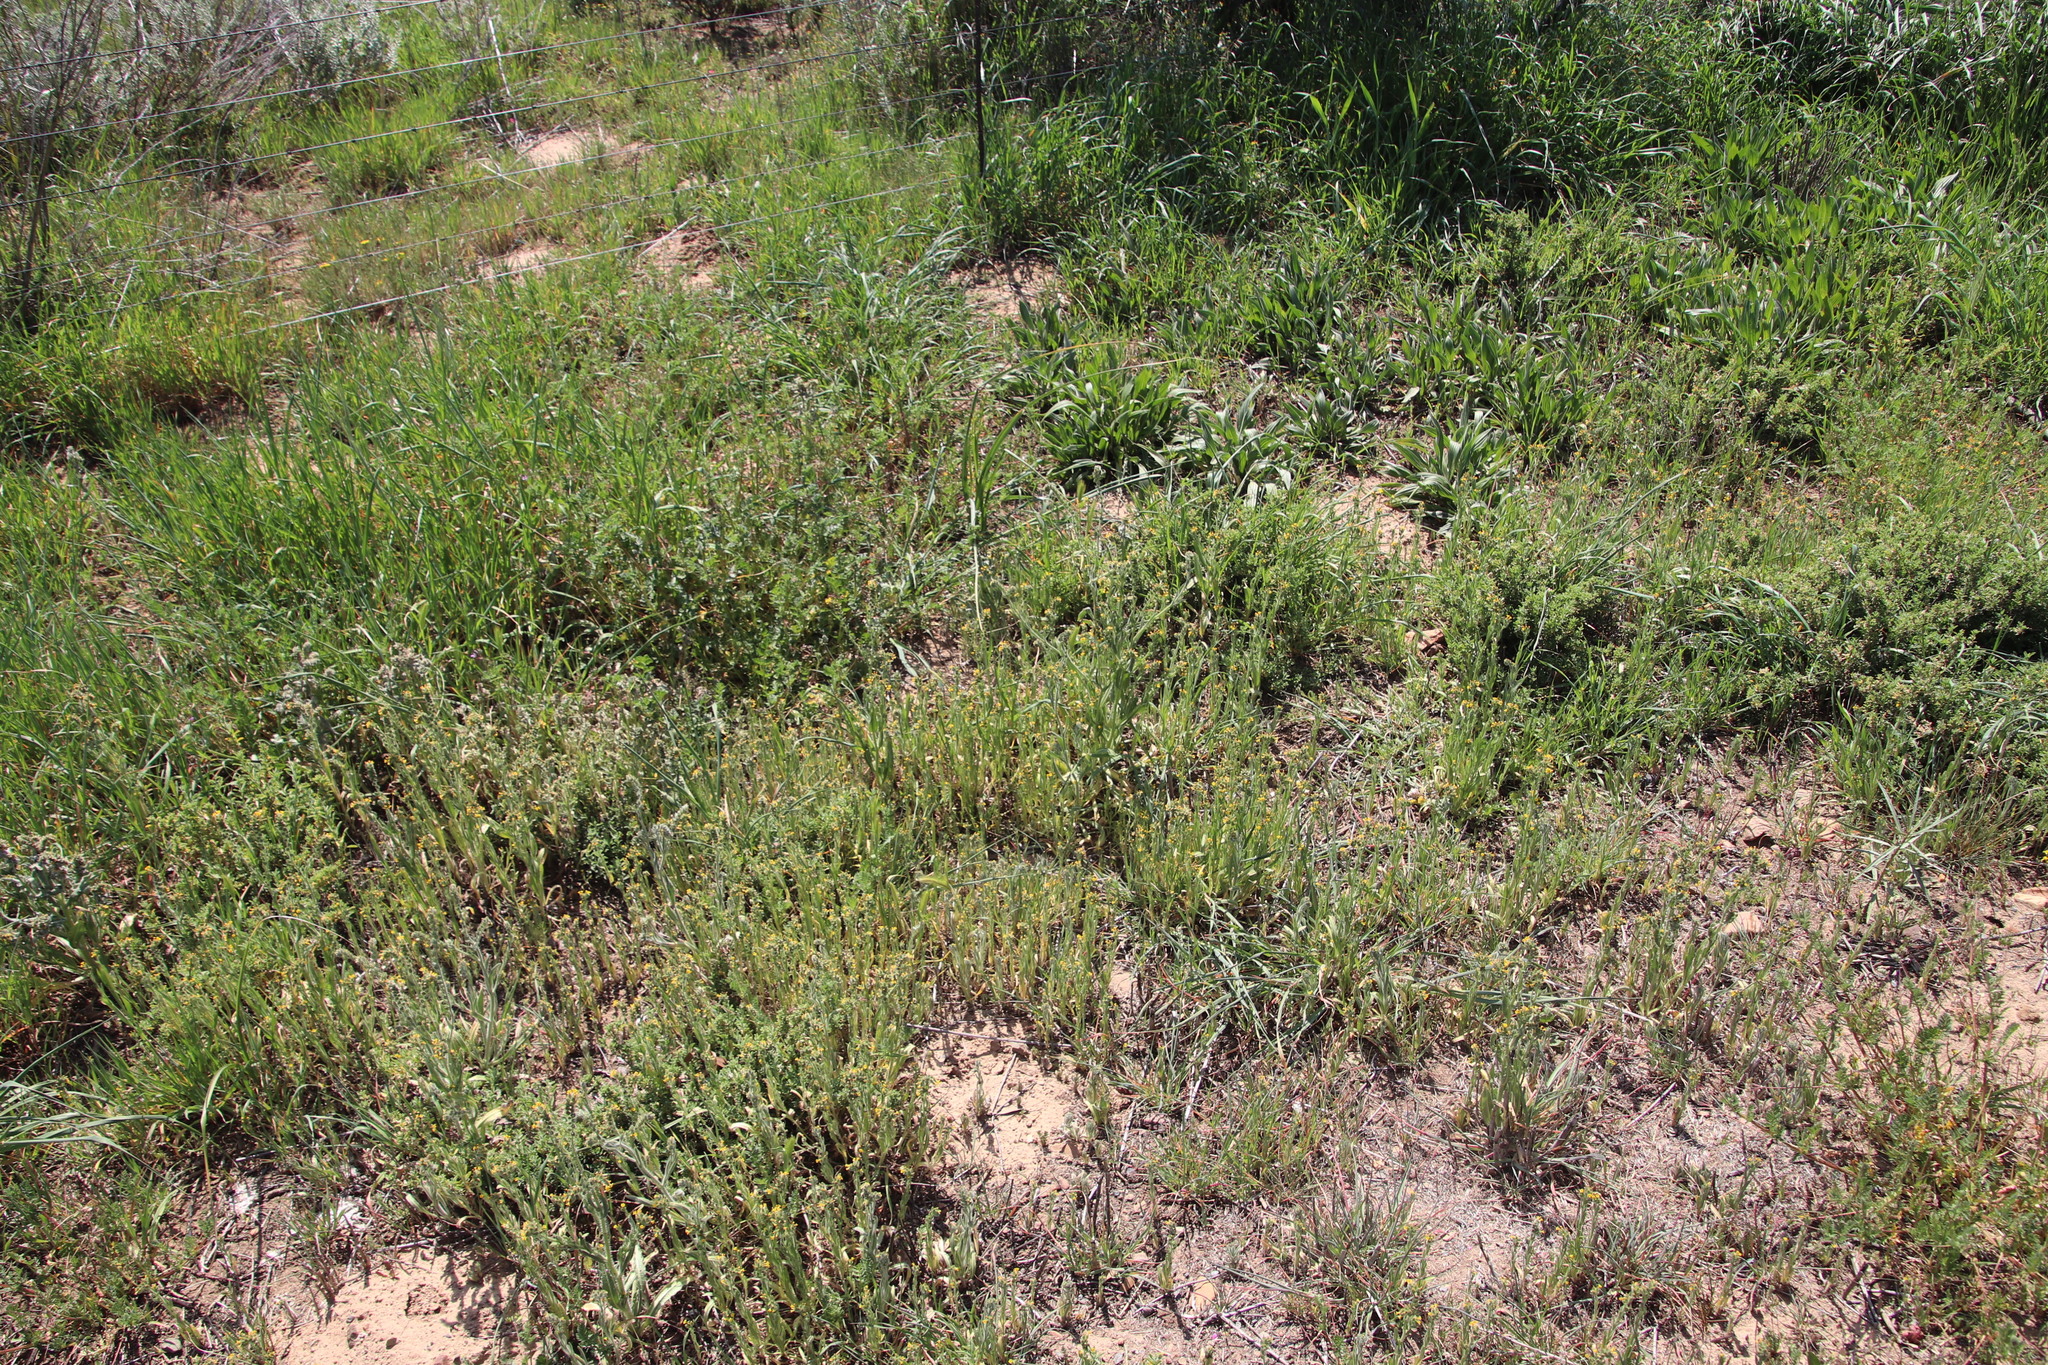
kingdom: Plantae
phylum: Tracheophyta
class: Magnoliopsida
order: Boraginales
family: Boraginaceae
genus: Amsinckia
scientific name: Amsinckia menziesii
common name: Menzies' fiddleneck
